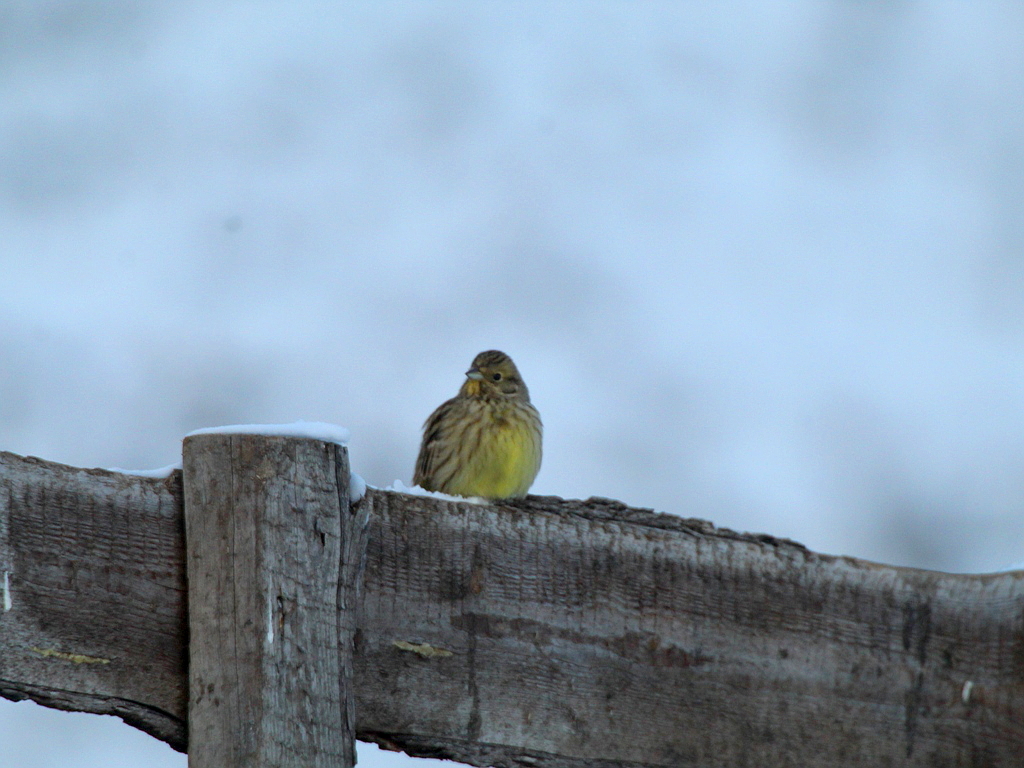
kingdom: Animalia
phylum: Chordata
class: Aves
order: Passeriformes
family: Emberizidae
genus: Emberiza
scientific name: Emberiza citrinella
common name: Yellowhammer
